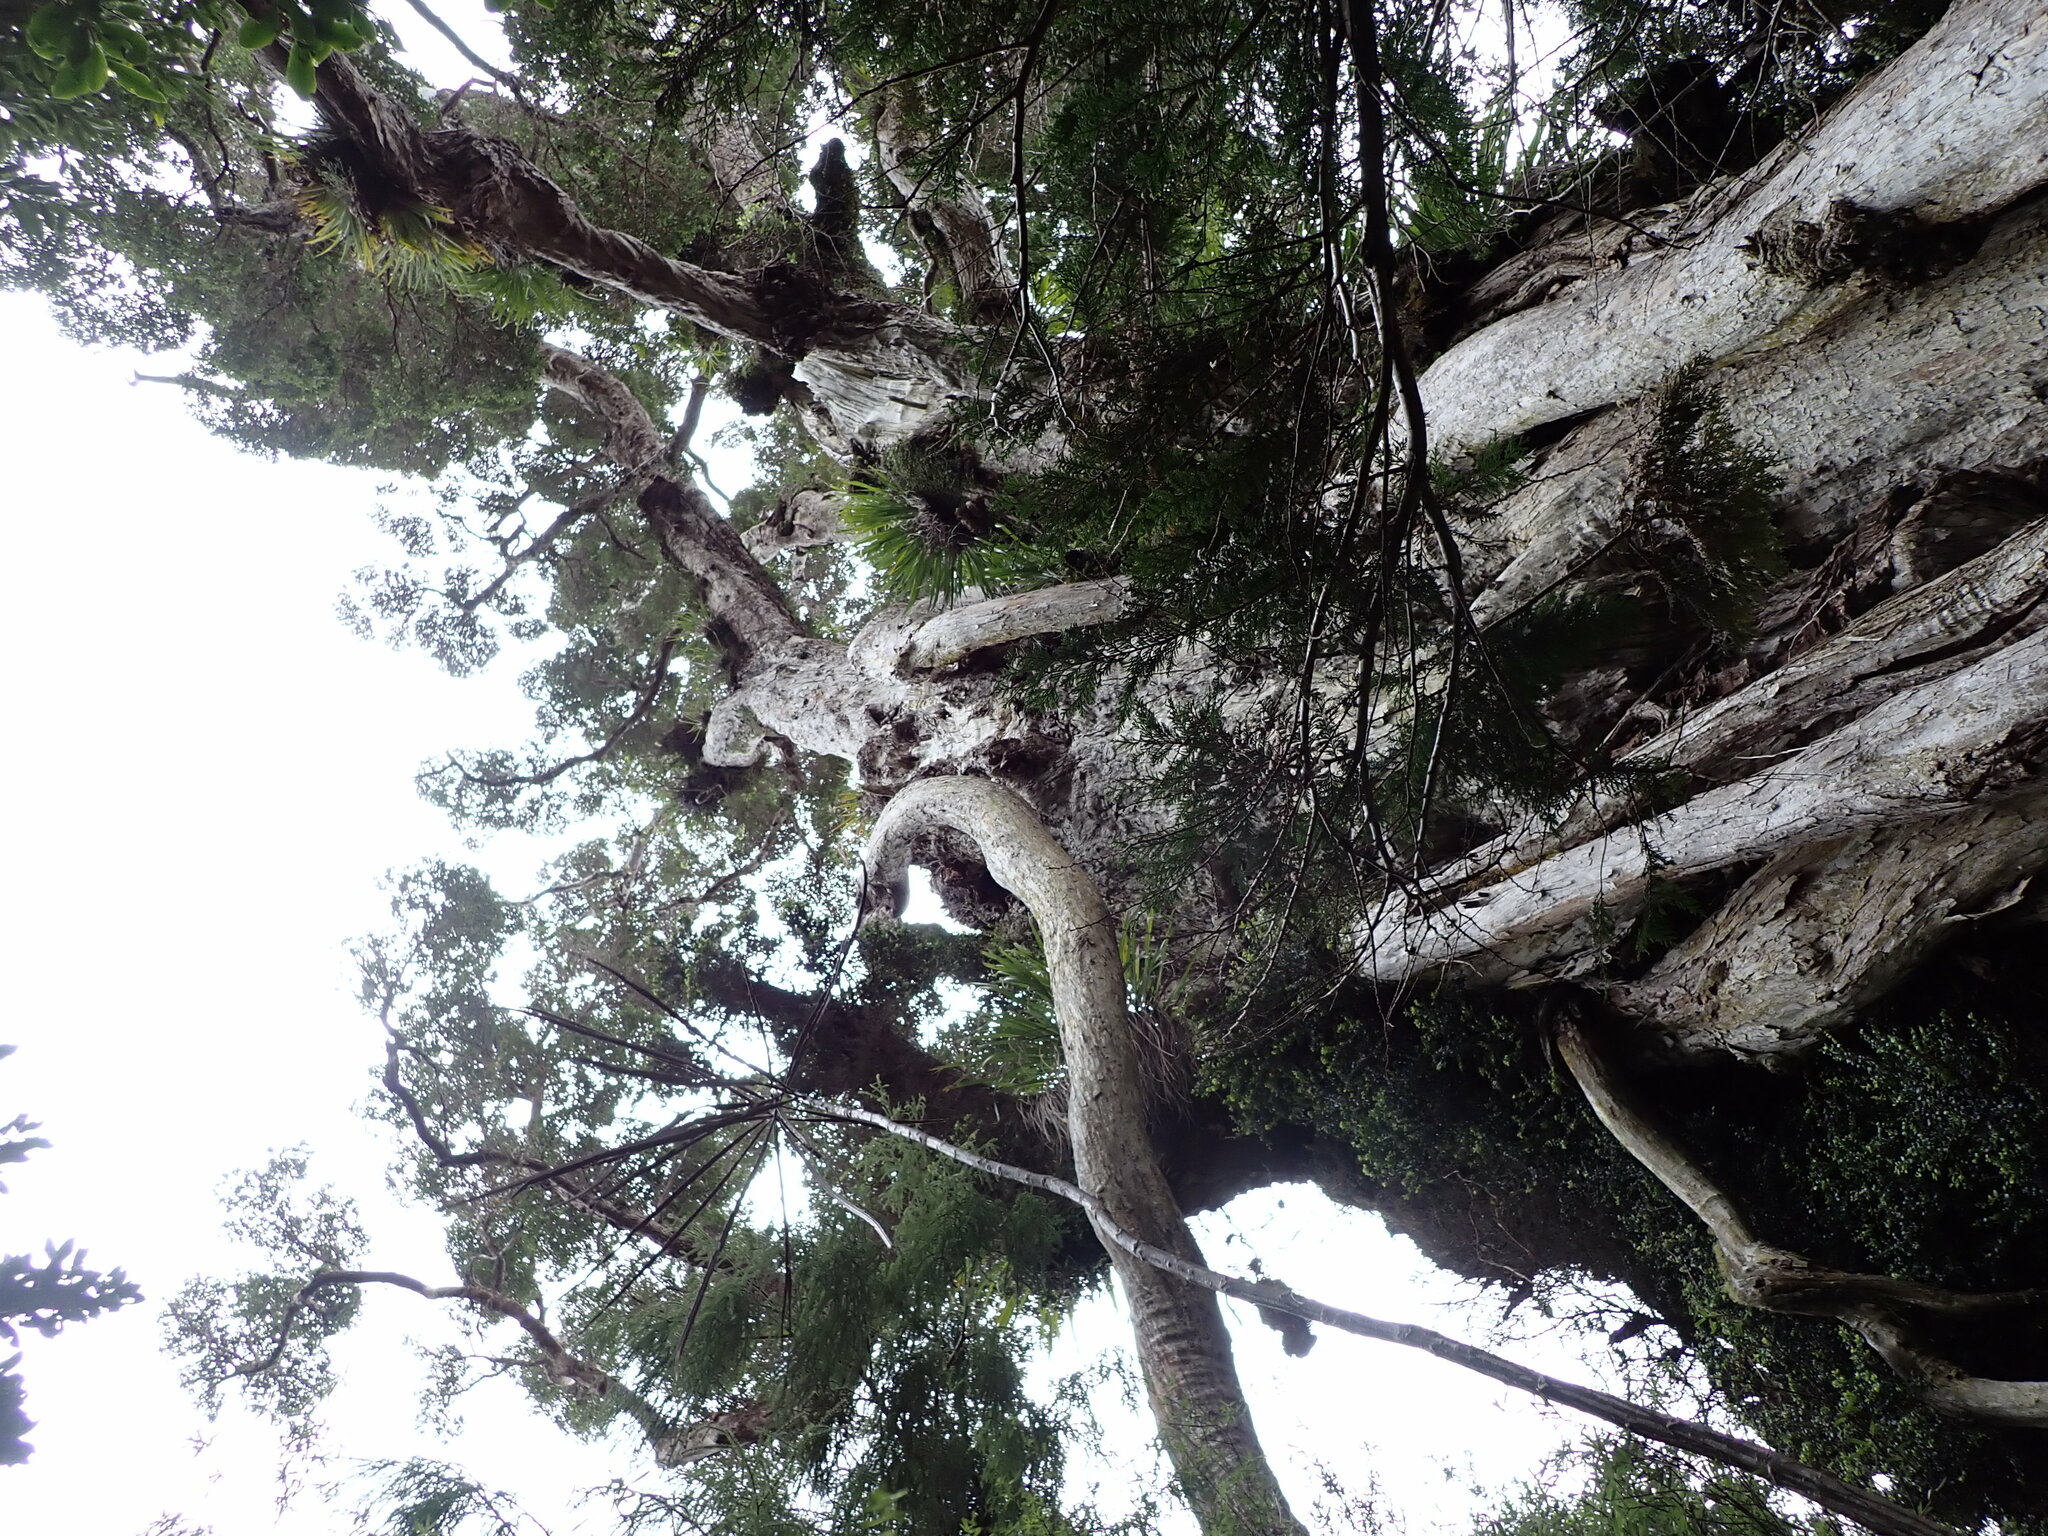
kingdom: Plantae
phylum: Tracheophyta
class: Magnoliopsida
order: Myrtales
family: Myrtaceae
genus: Metrosideros
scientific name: Metrosideros robusta
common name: Northern rata
